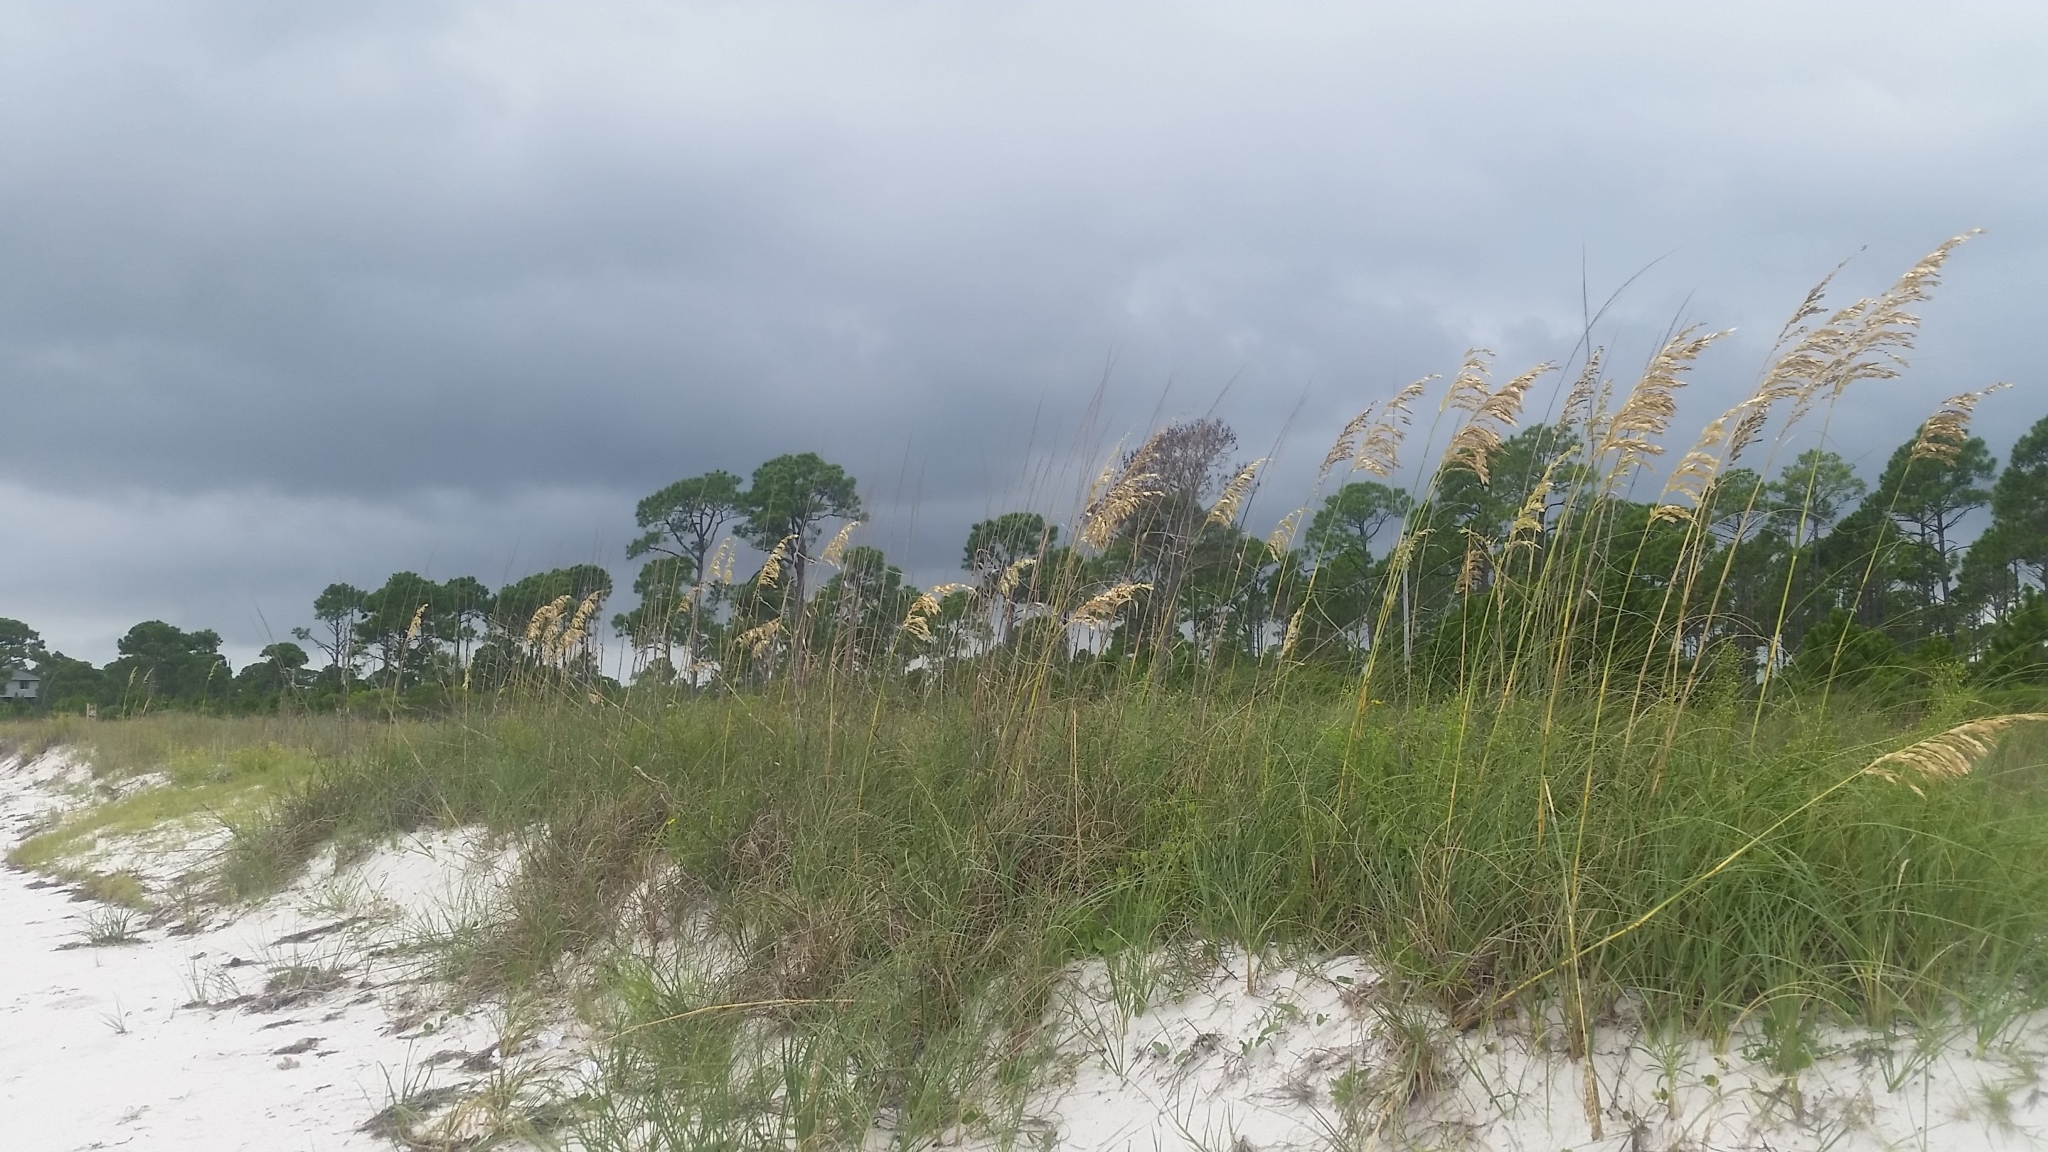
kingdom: Plantae
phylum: Tracheophyta
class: Liliopsida
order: Poales
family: Poaceae
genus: Uniola
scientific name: Uniola paniculata
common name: Seaside-oats
